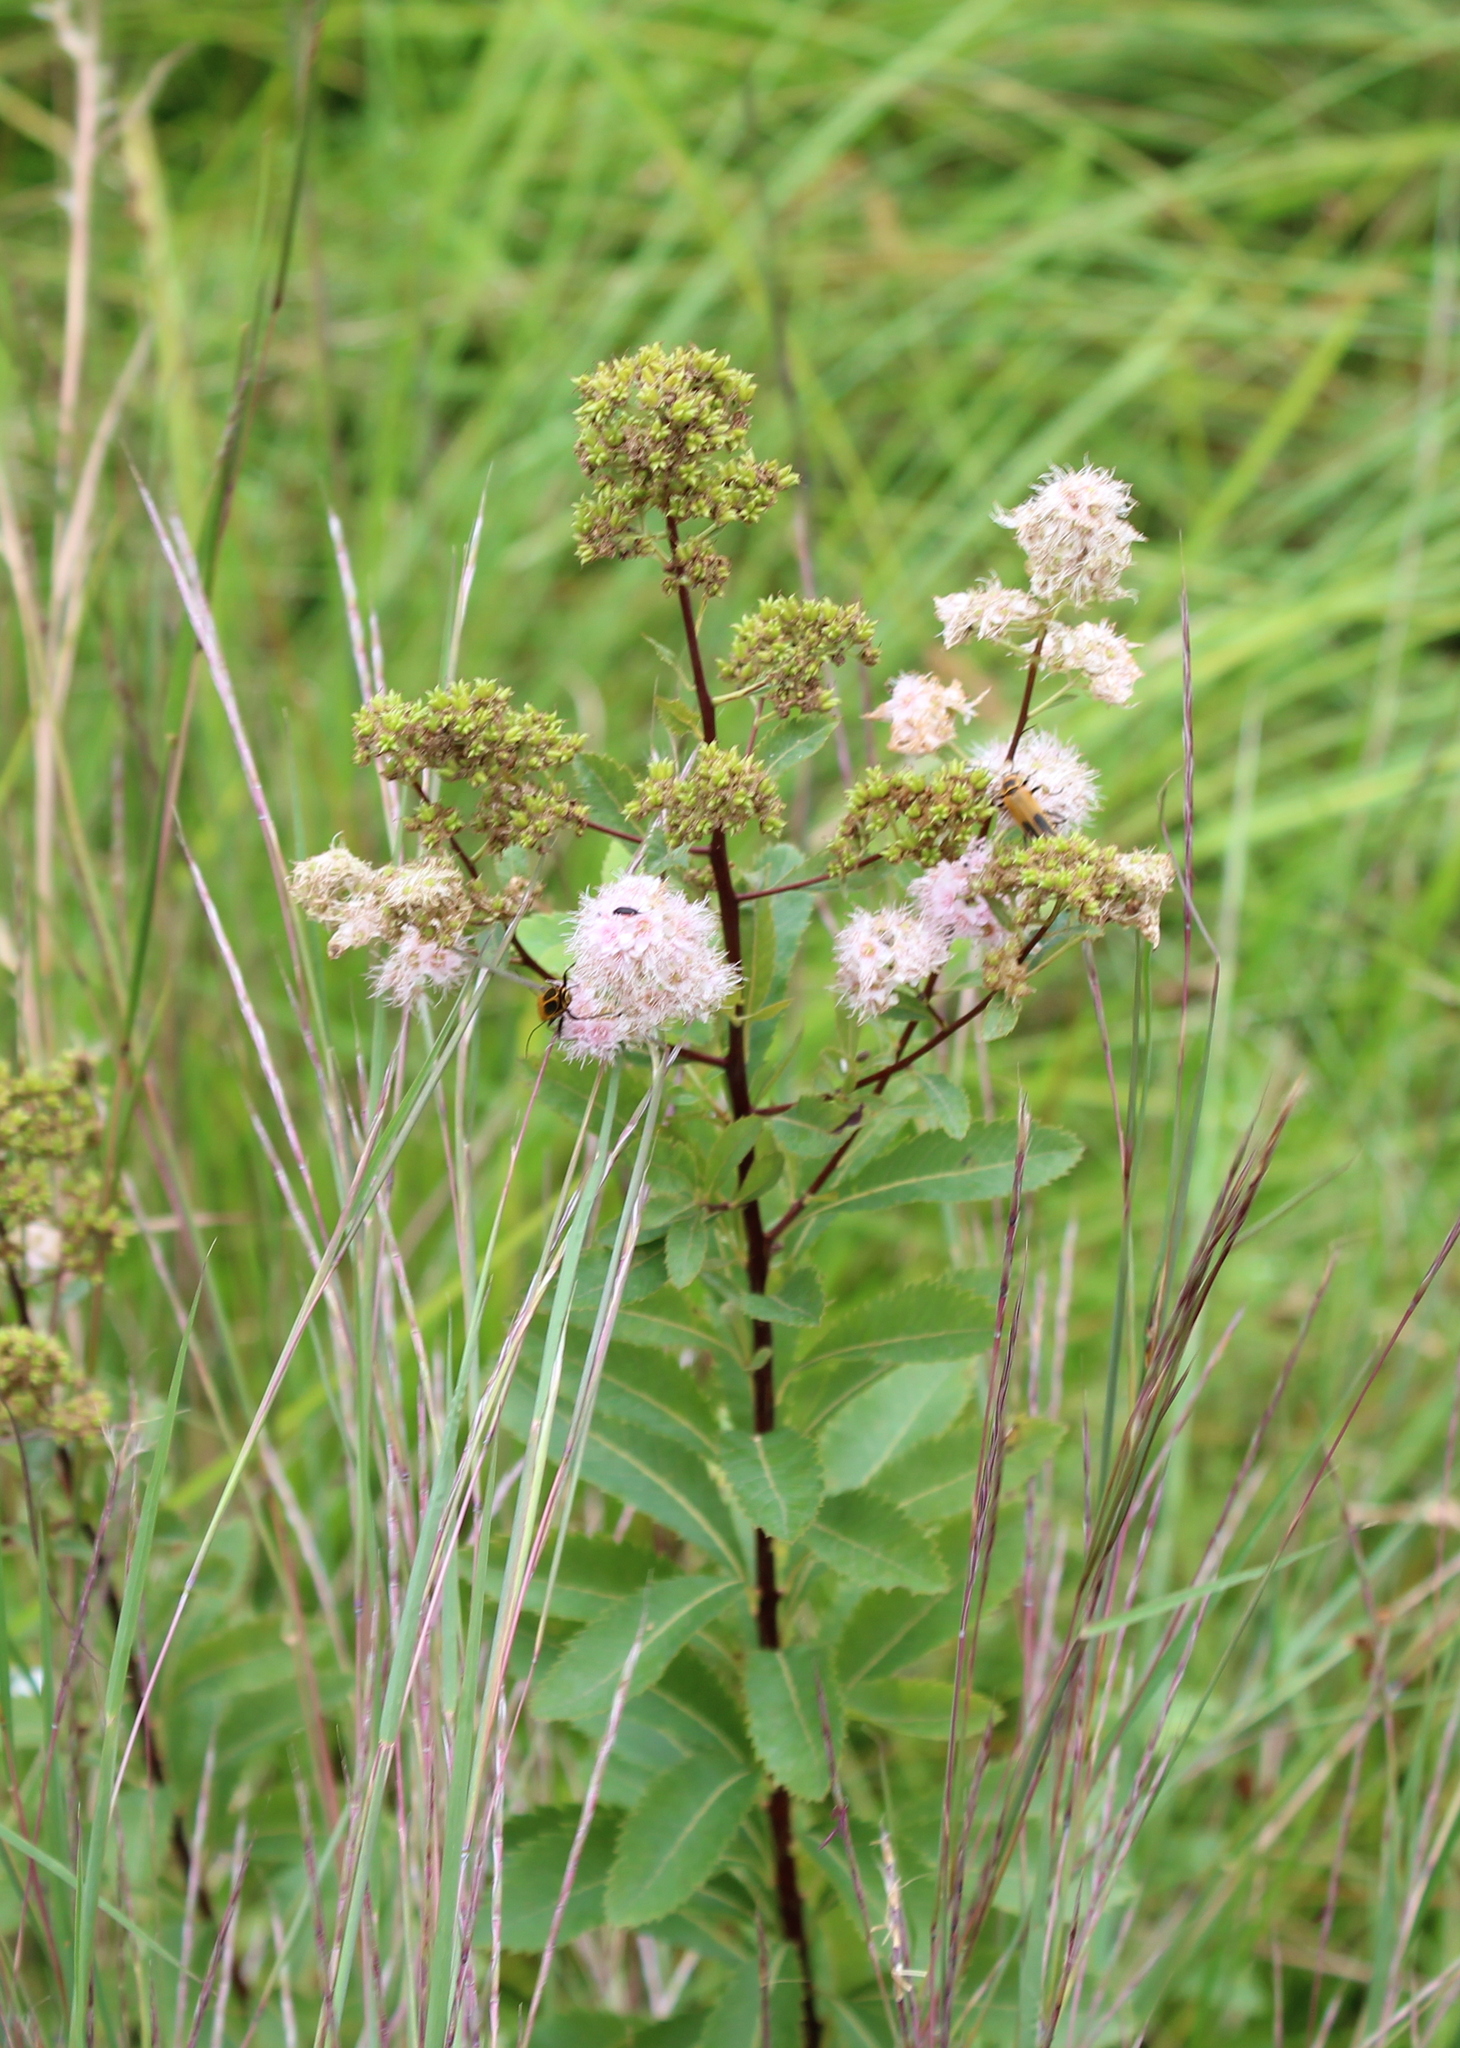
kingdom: Plantae
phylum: Tracheophyta
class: Magnoliopsida
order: Rosales
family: Rosaceae
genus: Spiraea
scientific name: Spiraea alba
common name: Pale bridewort
